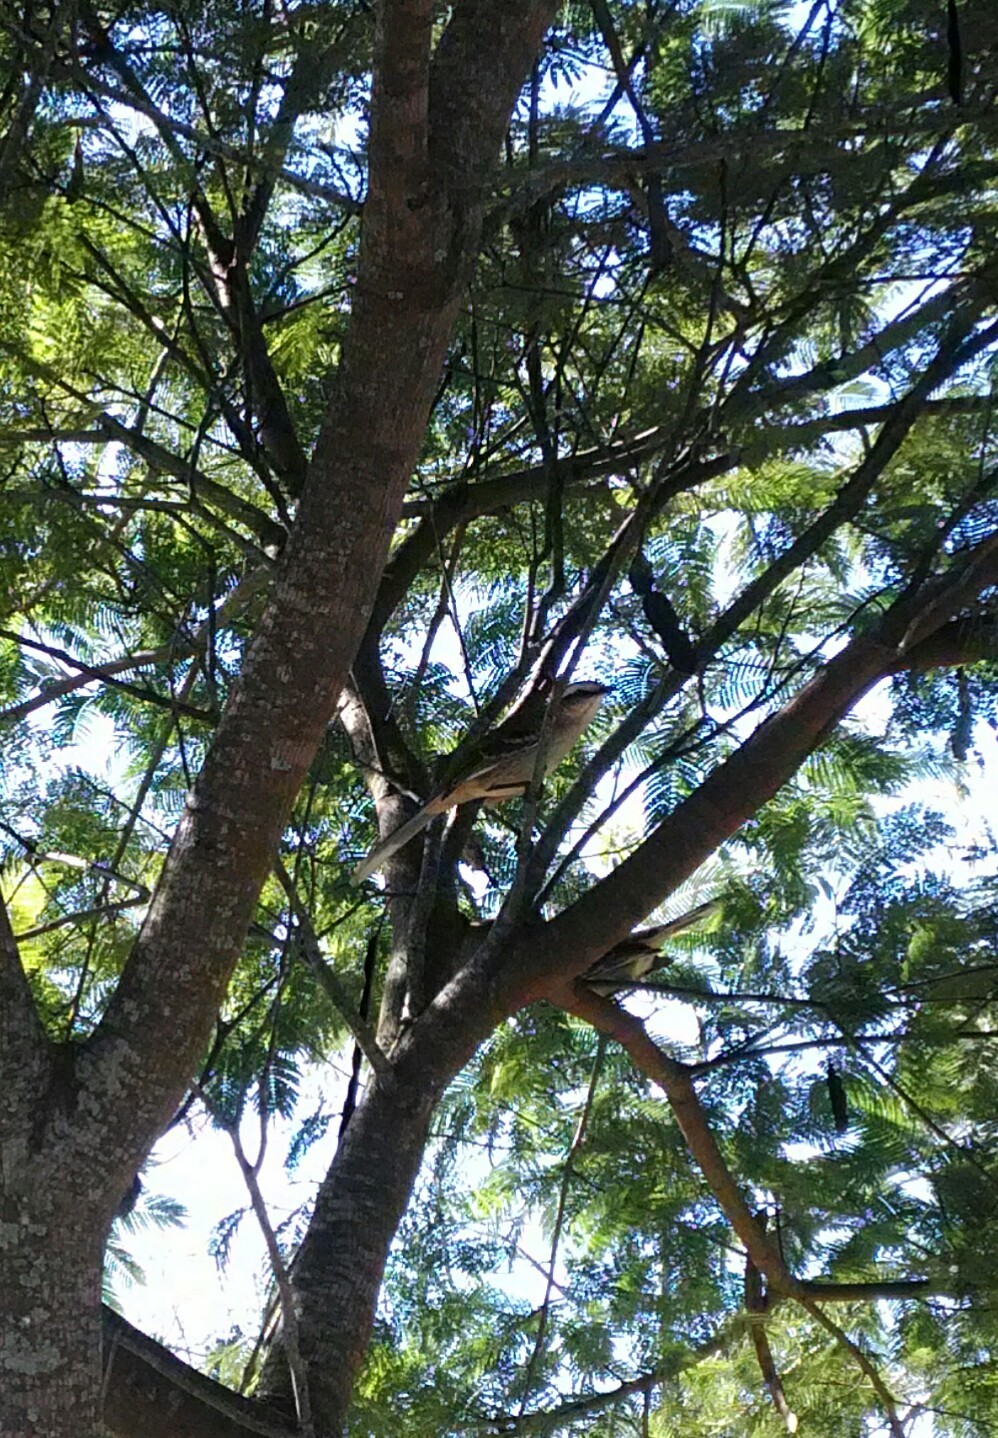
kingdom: Animalia
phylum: Chordata
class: Aves
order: Passeriformes
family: Mimidae
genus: Mimus
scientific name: Mimus saturninus
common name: Chalk-browed mockingbird
